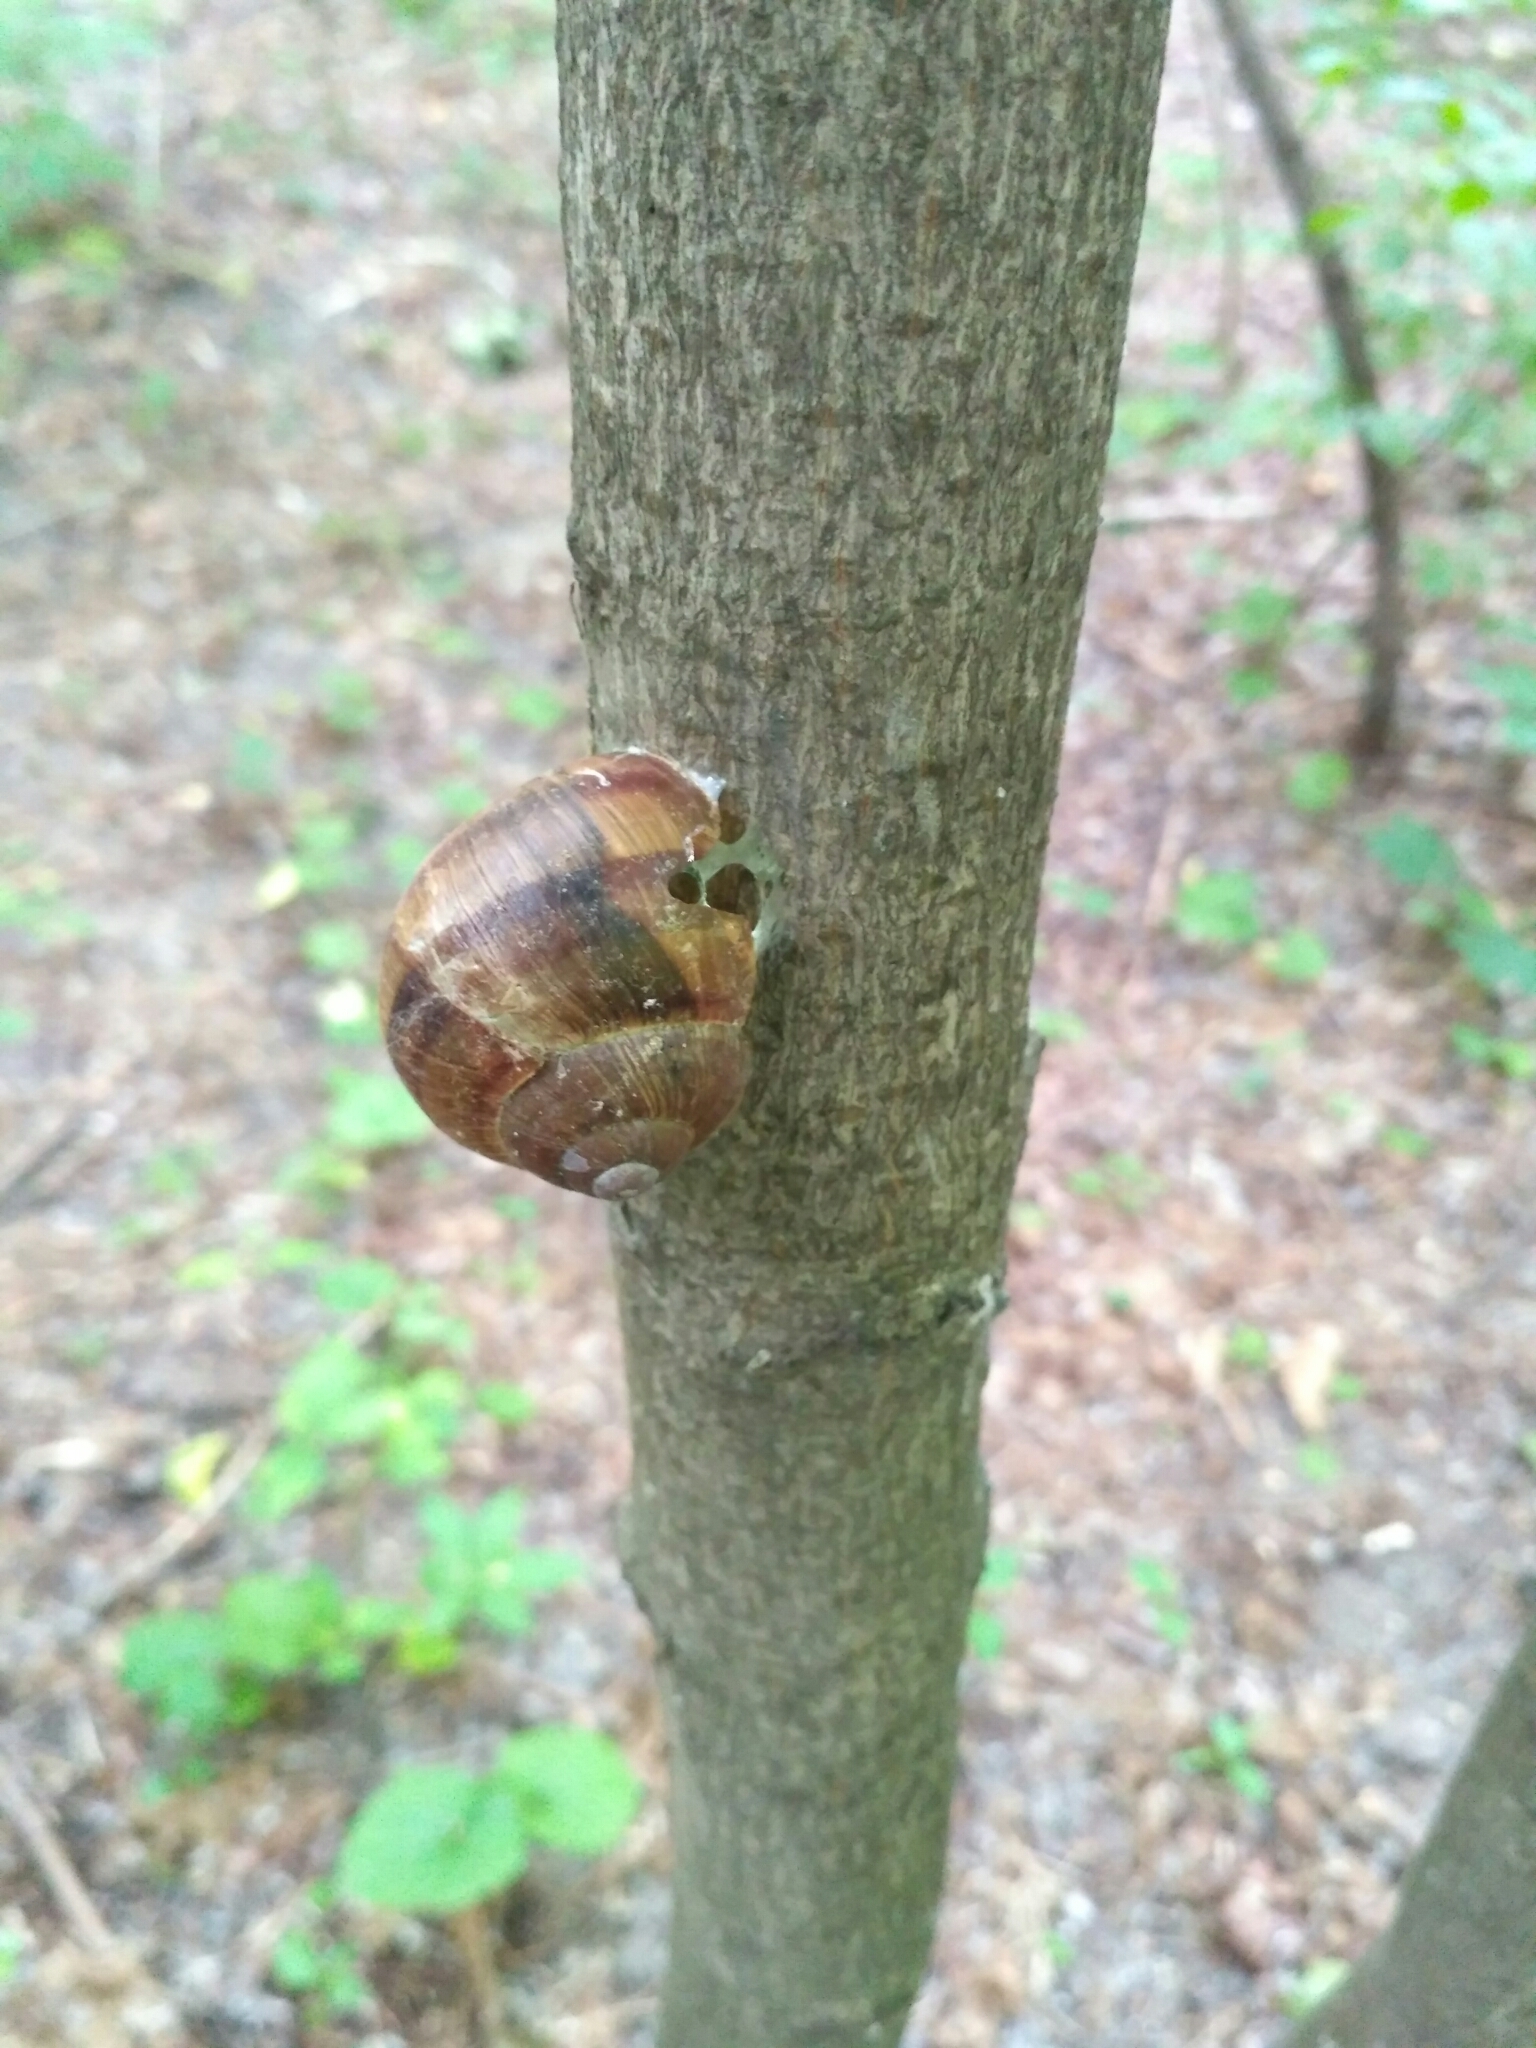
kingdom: Animalia
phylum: Mollusca
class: Gastropoda
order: Stylommatophora
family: Helicidae
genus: Helix
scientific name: Helix pomatia
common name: Roman snail
